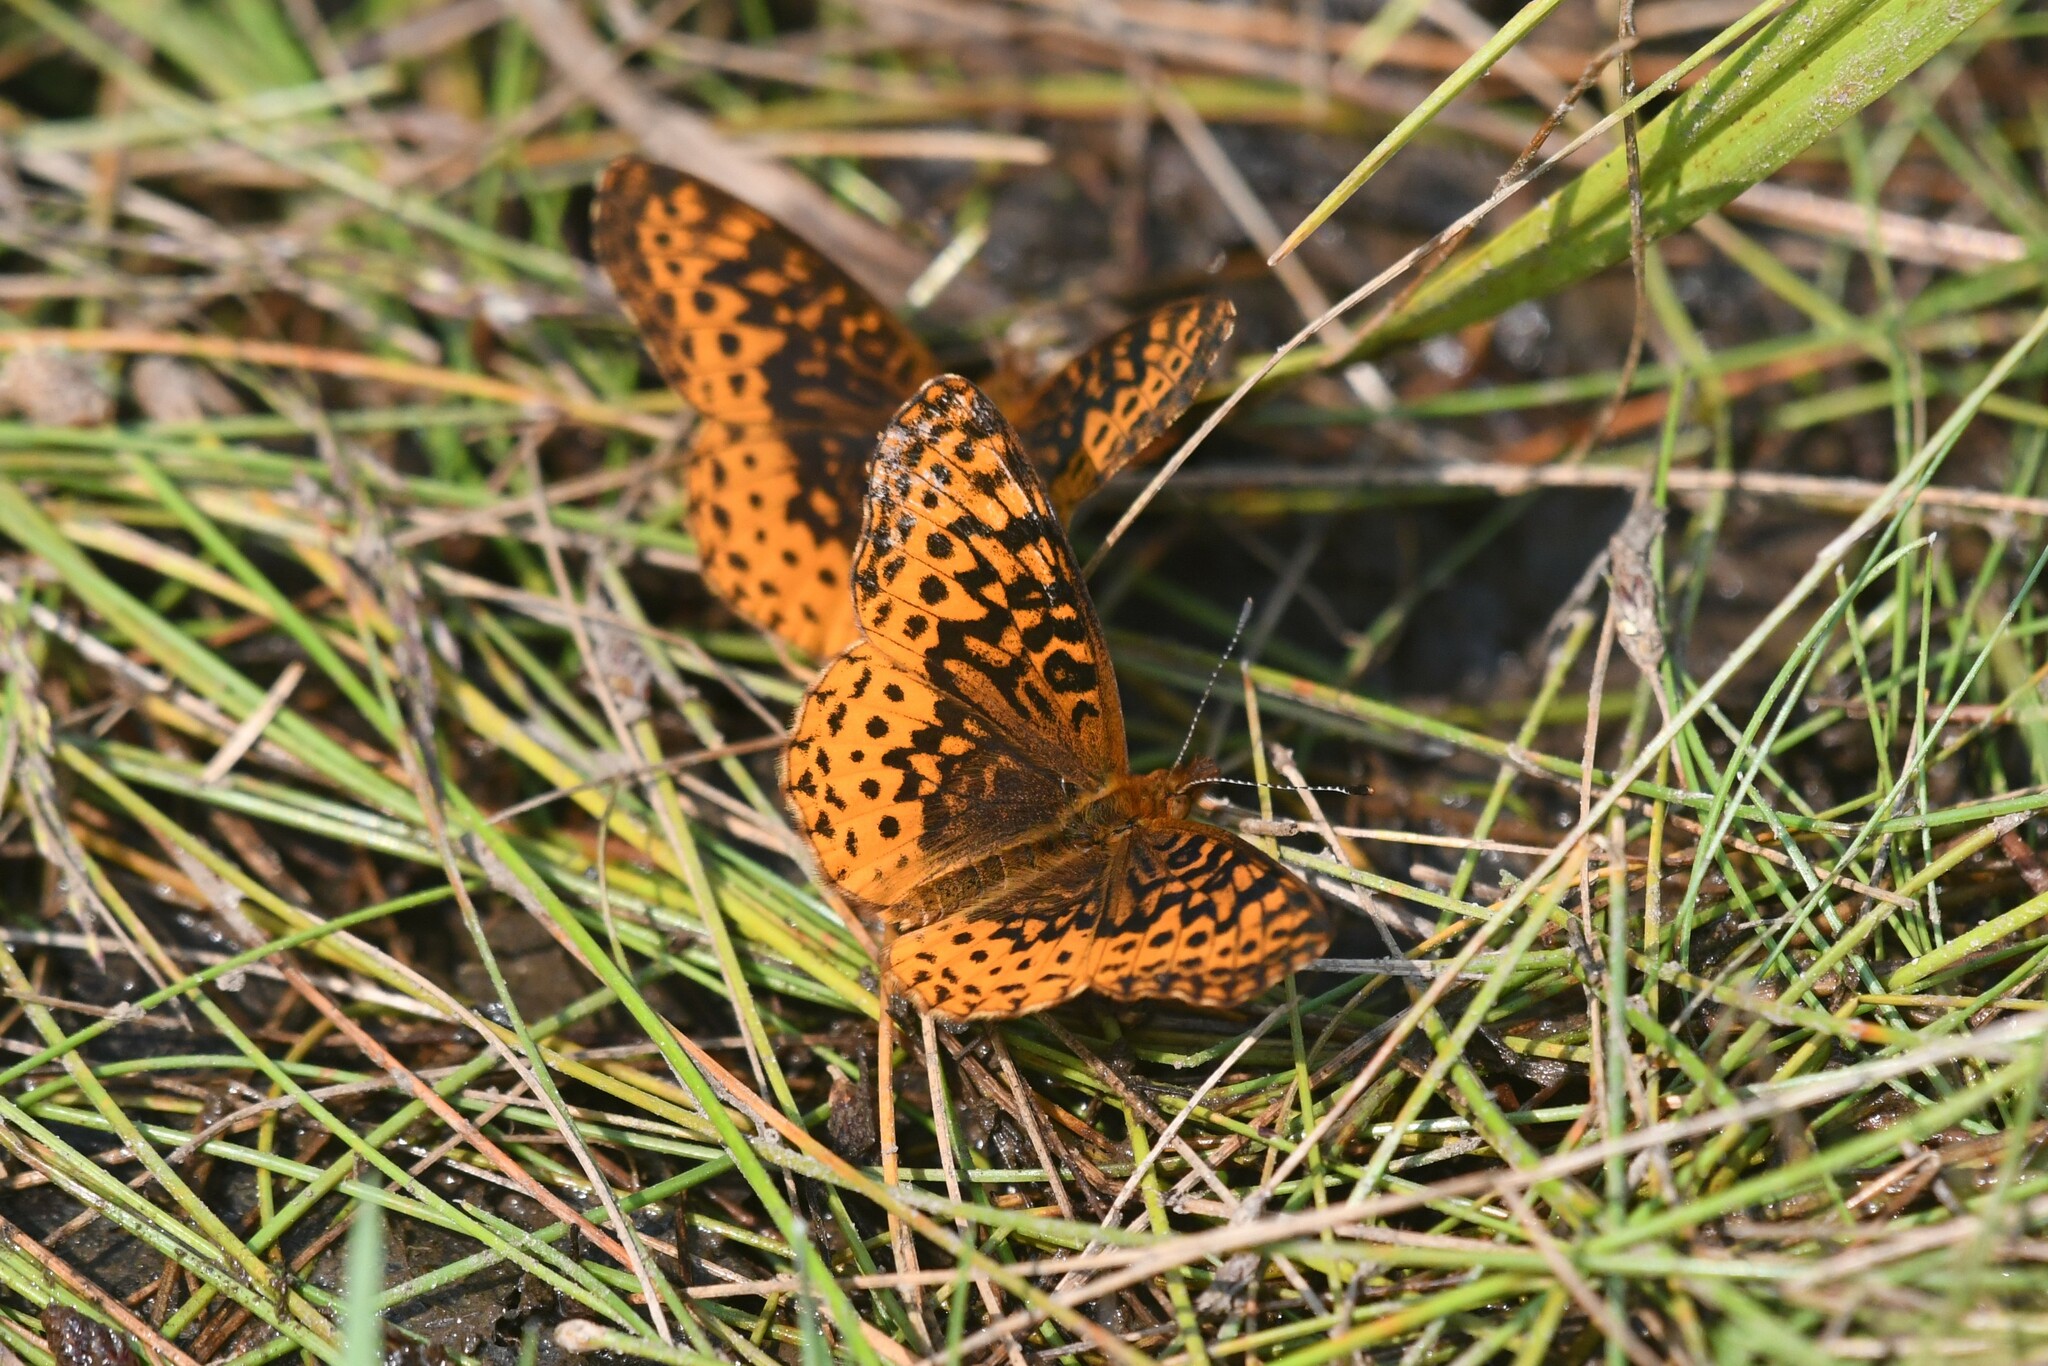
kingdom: Animalia
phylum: Arthropoda
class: Insecta
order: Lepidoptera
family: Nymphalidae
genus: Clossiana
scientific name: Clossiana toddi
